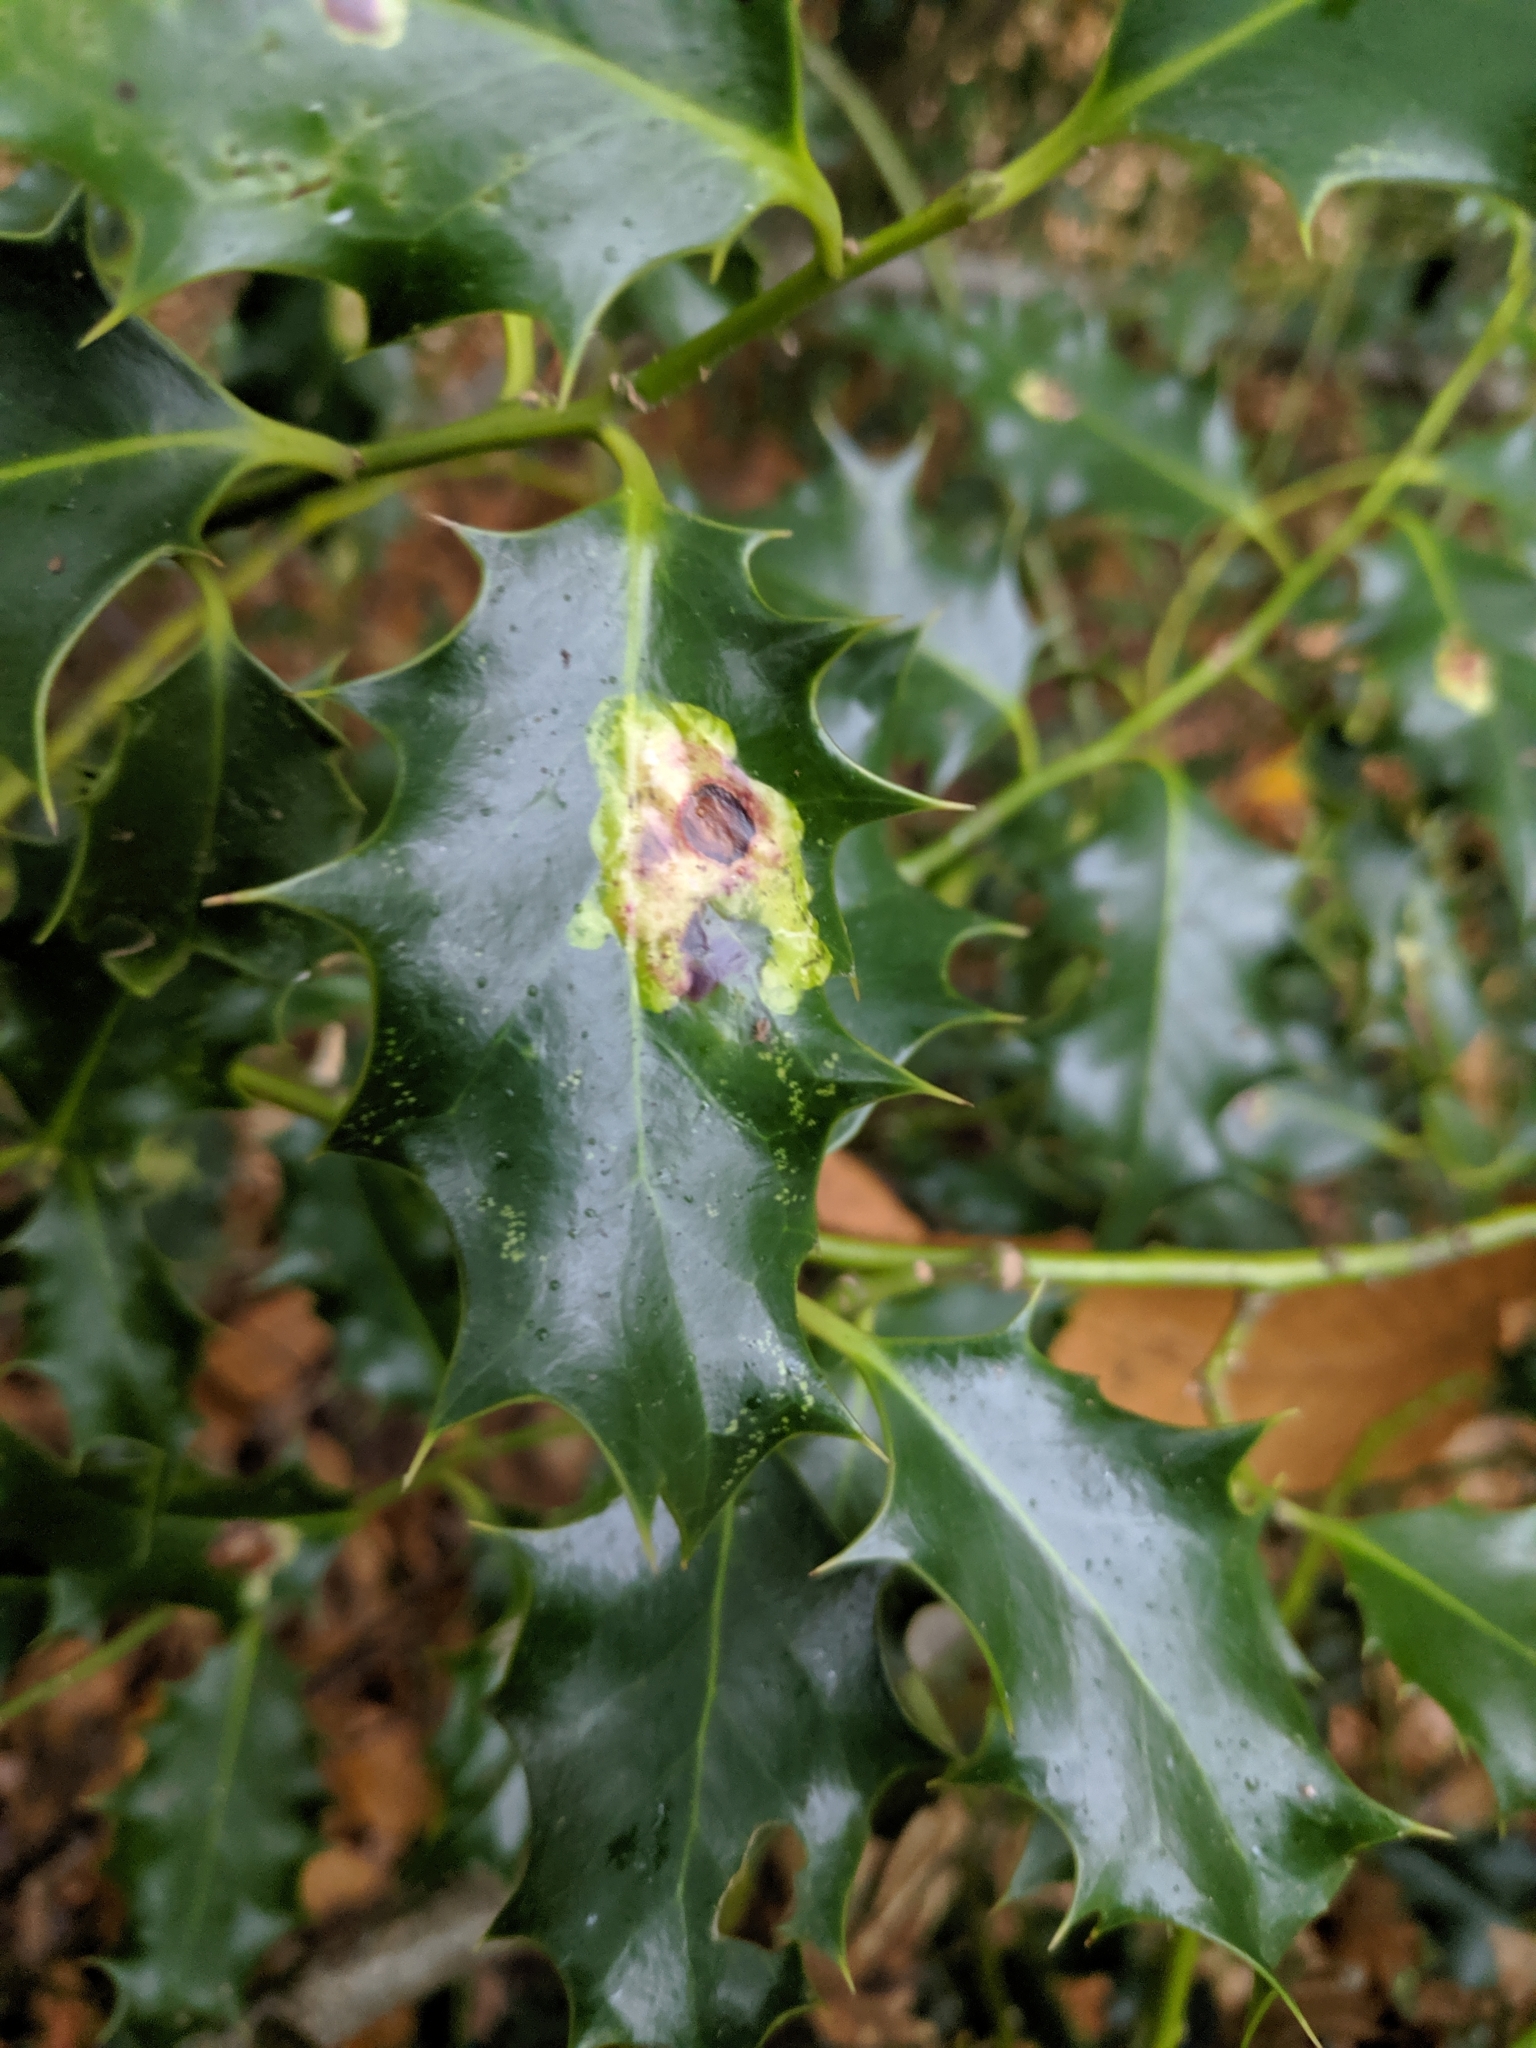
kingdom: Animalia
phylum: Arthropoda
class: Insecta
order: Diptera
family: Agromyzidae
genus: Phytomyza
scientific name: Phytomyza ilicis
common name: Holly leafminer
